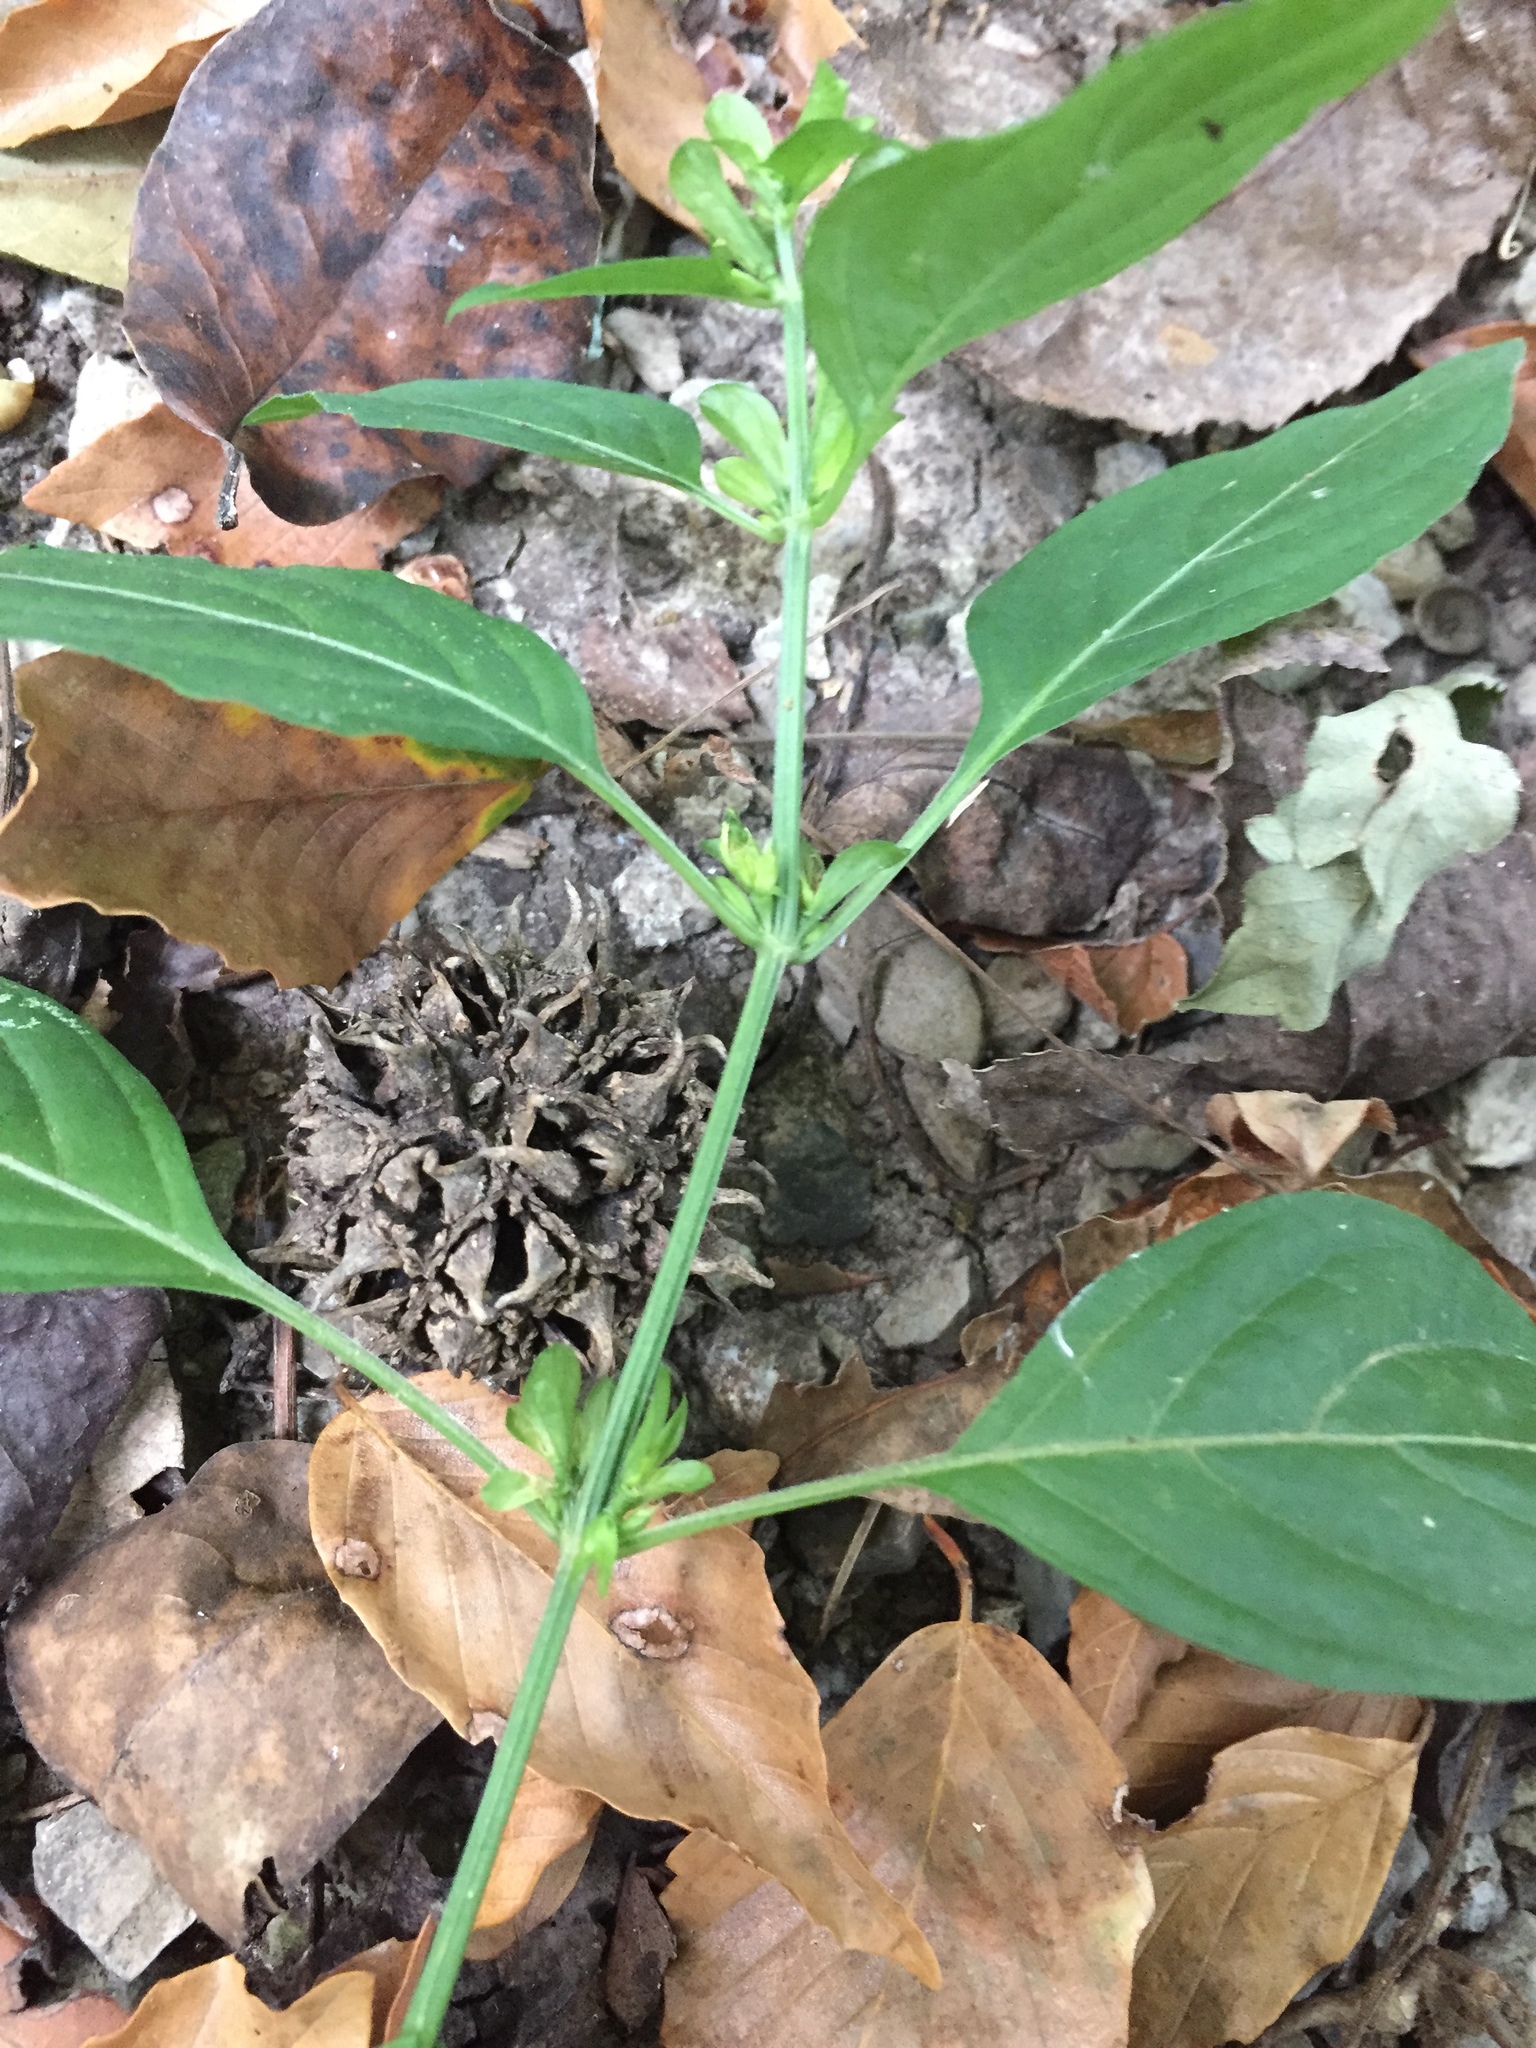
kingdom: Plantae
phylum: Tracheophyta
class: Magnoliopsida
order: Lamiales
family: Acanthaceae
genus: Dicliptera
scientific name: Dicliptera brachiata
